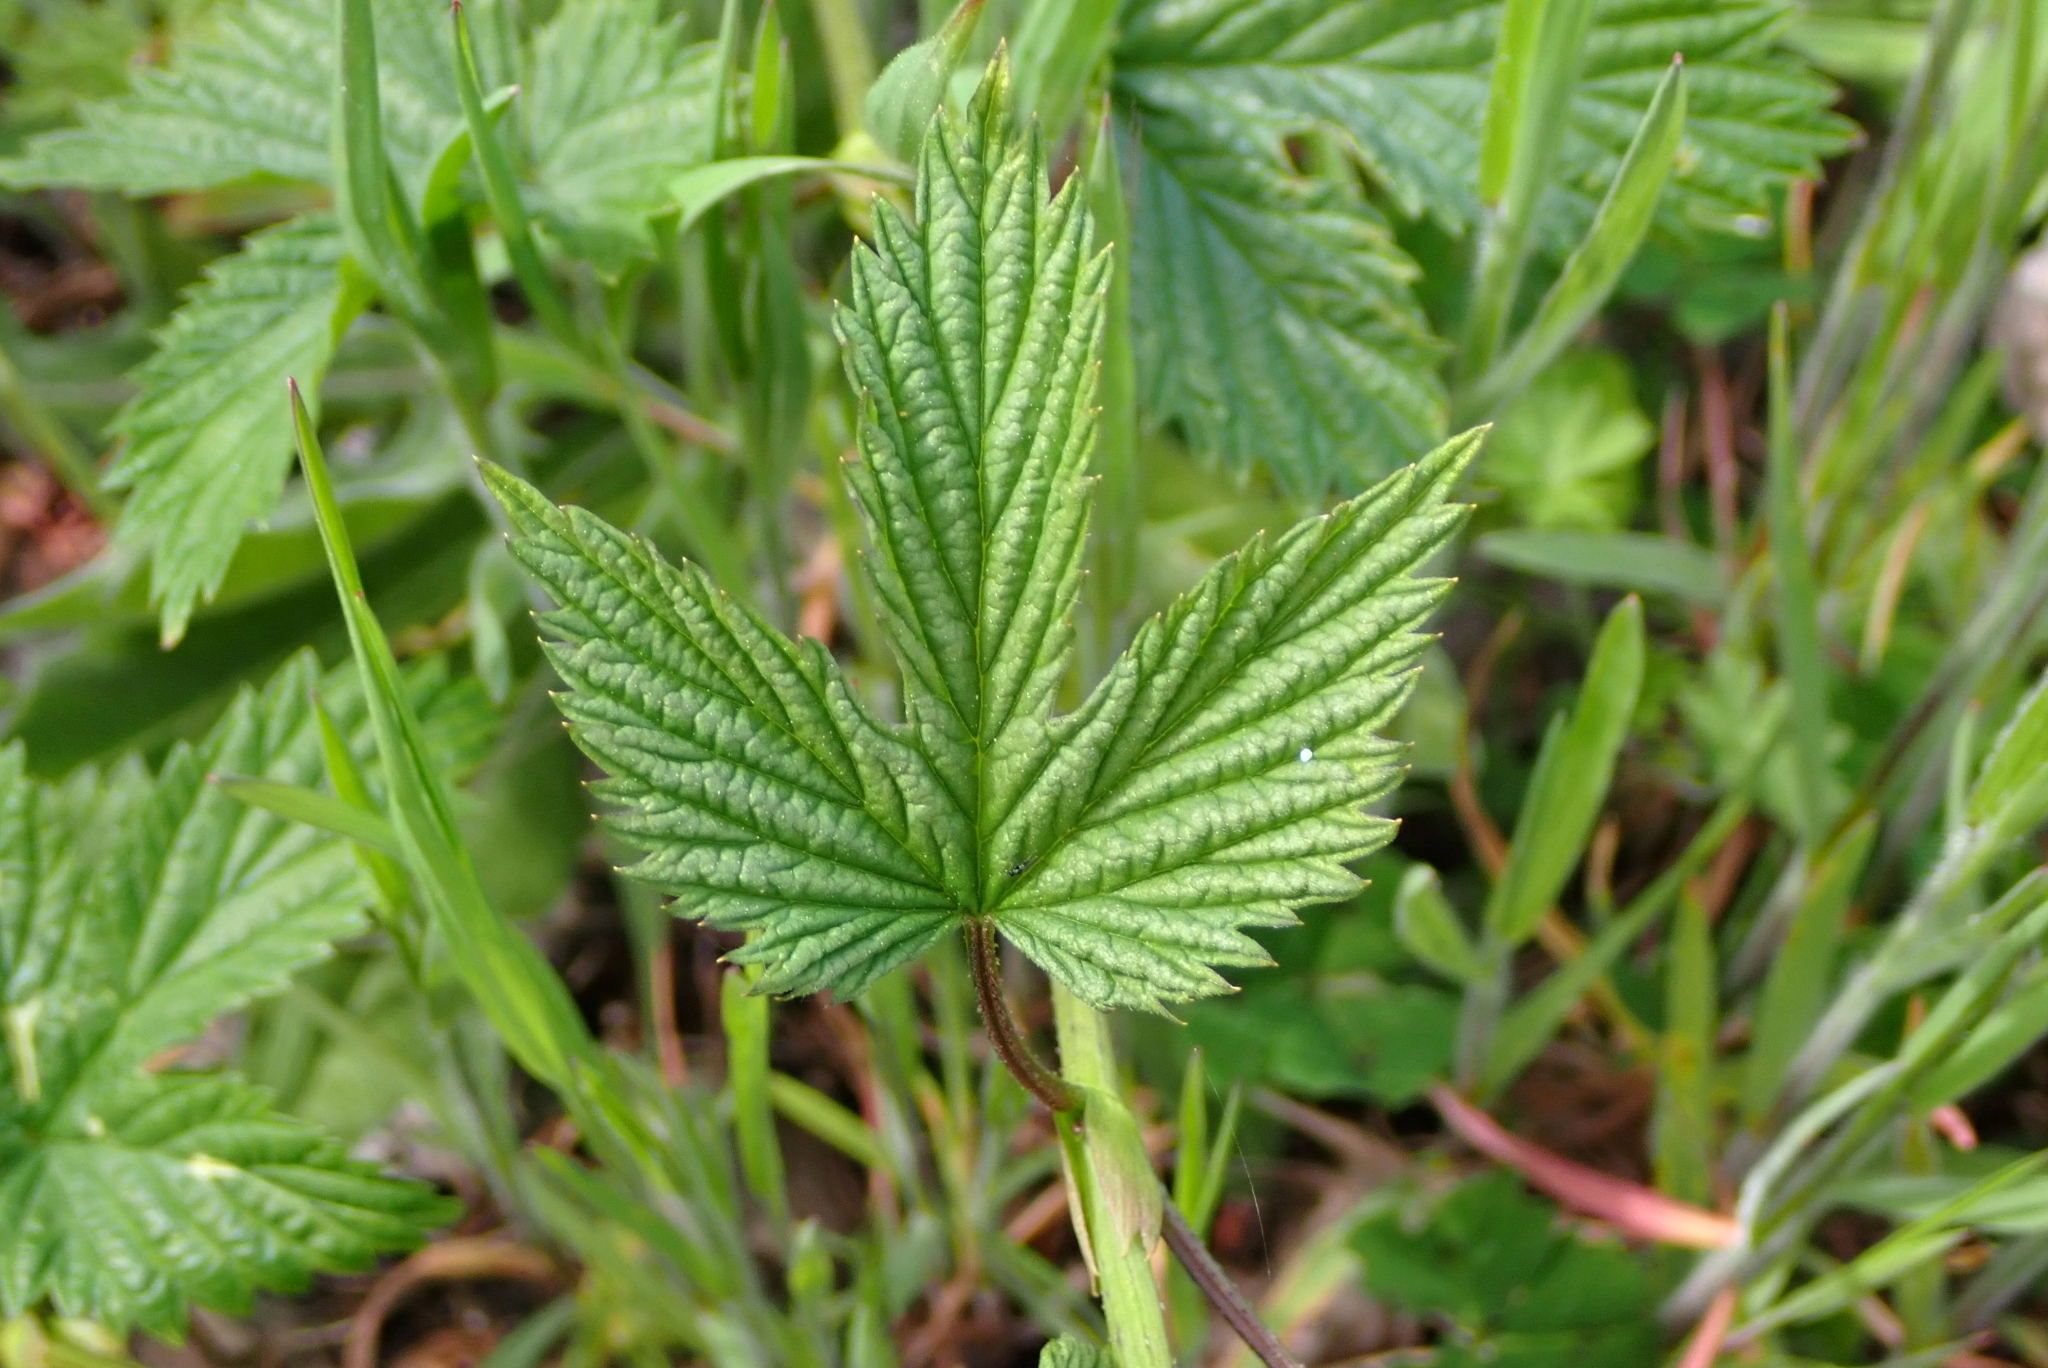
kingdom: Plantae
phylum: Tracheophyta
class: Magnoliopsida
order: Rosales
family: Cannabaceae
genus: Humulus
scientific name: Humulus lupulus
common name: Hop
